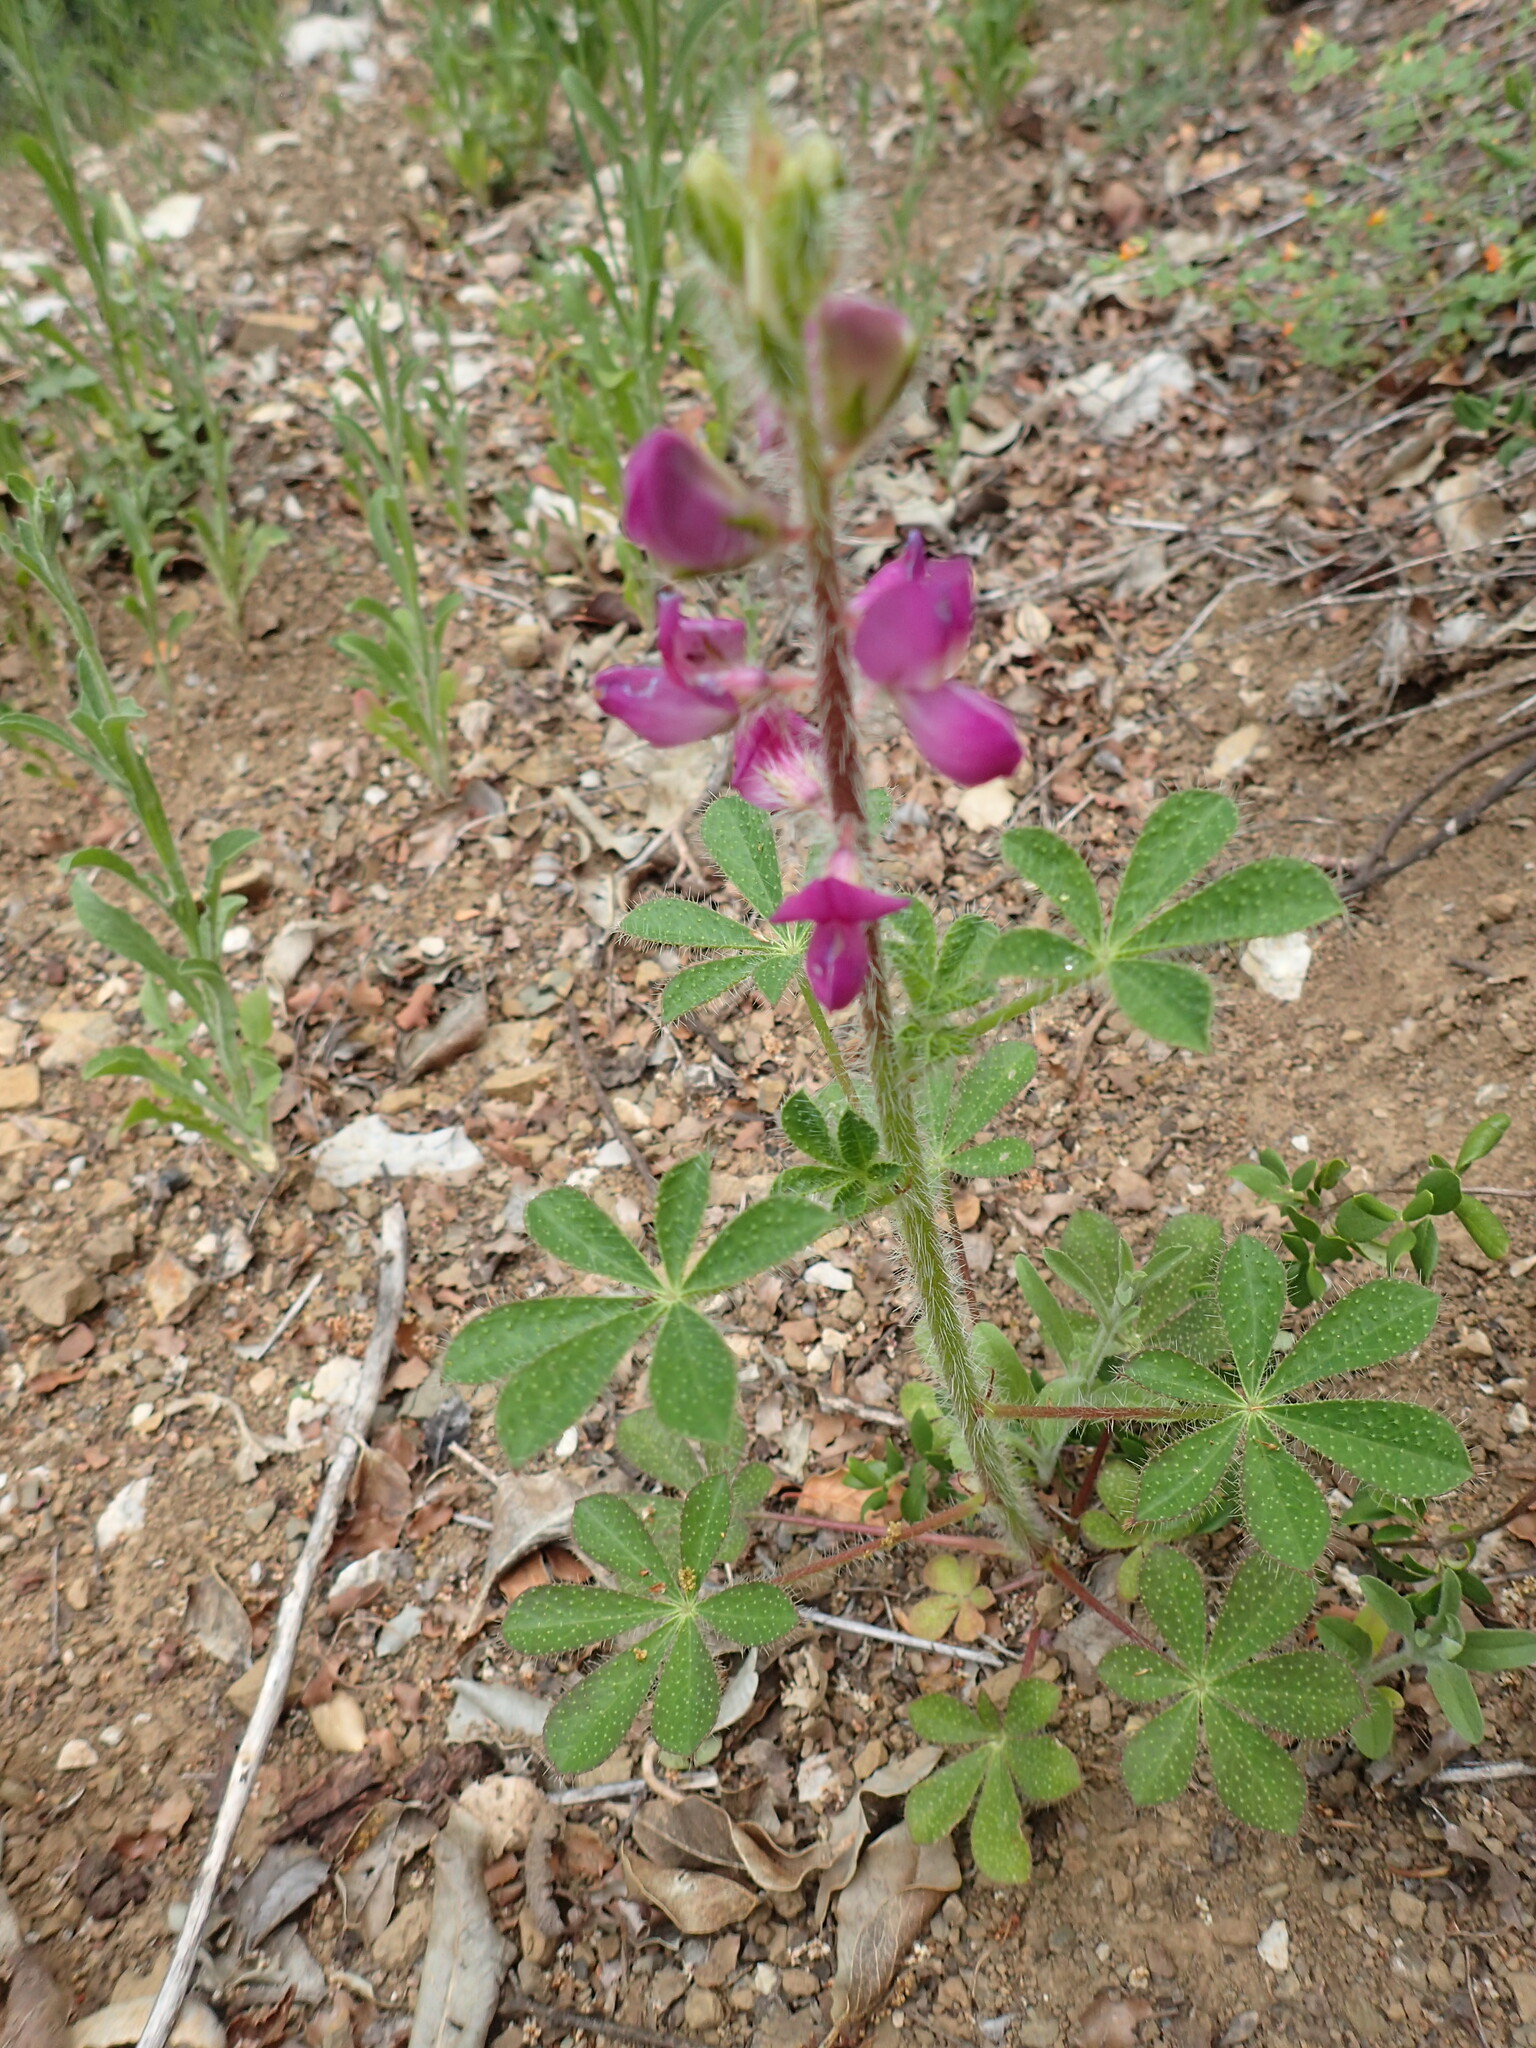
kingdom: Plantae
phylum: Tracheophyta
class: Magnoliopsida
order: Fabales
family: Fabaceae
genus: Lupinus
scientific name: Lupinus hirsutissimus
